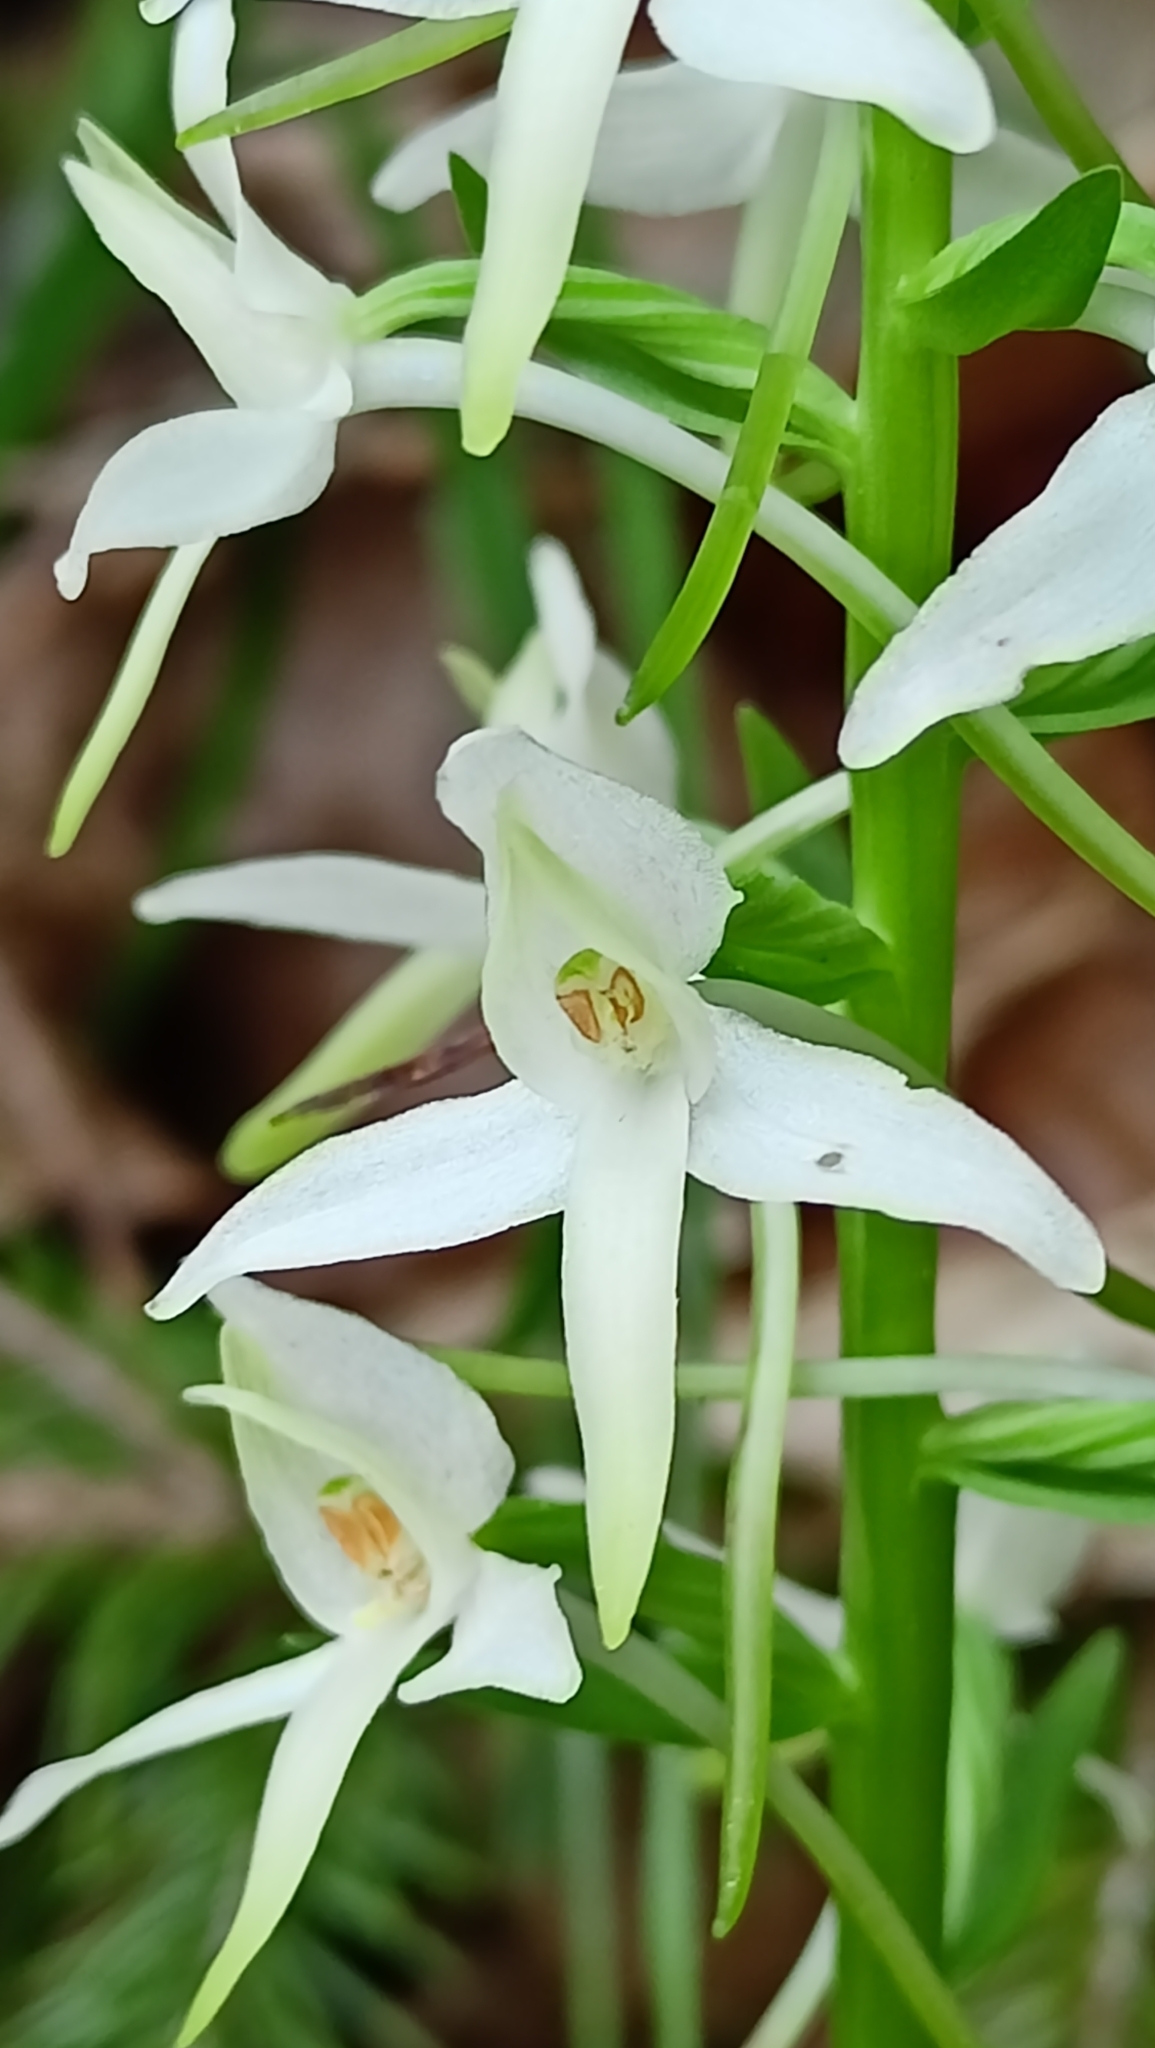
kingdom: Plantae
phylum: Tracheophyta
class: Liliopsida
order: Asparagales
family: Orchidaceae
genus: Platanthera
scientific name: Platanthera bifolia
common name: Lesser butterfly-orchid
